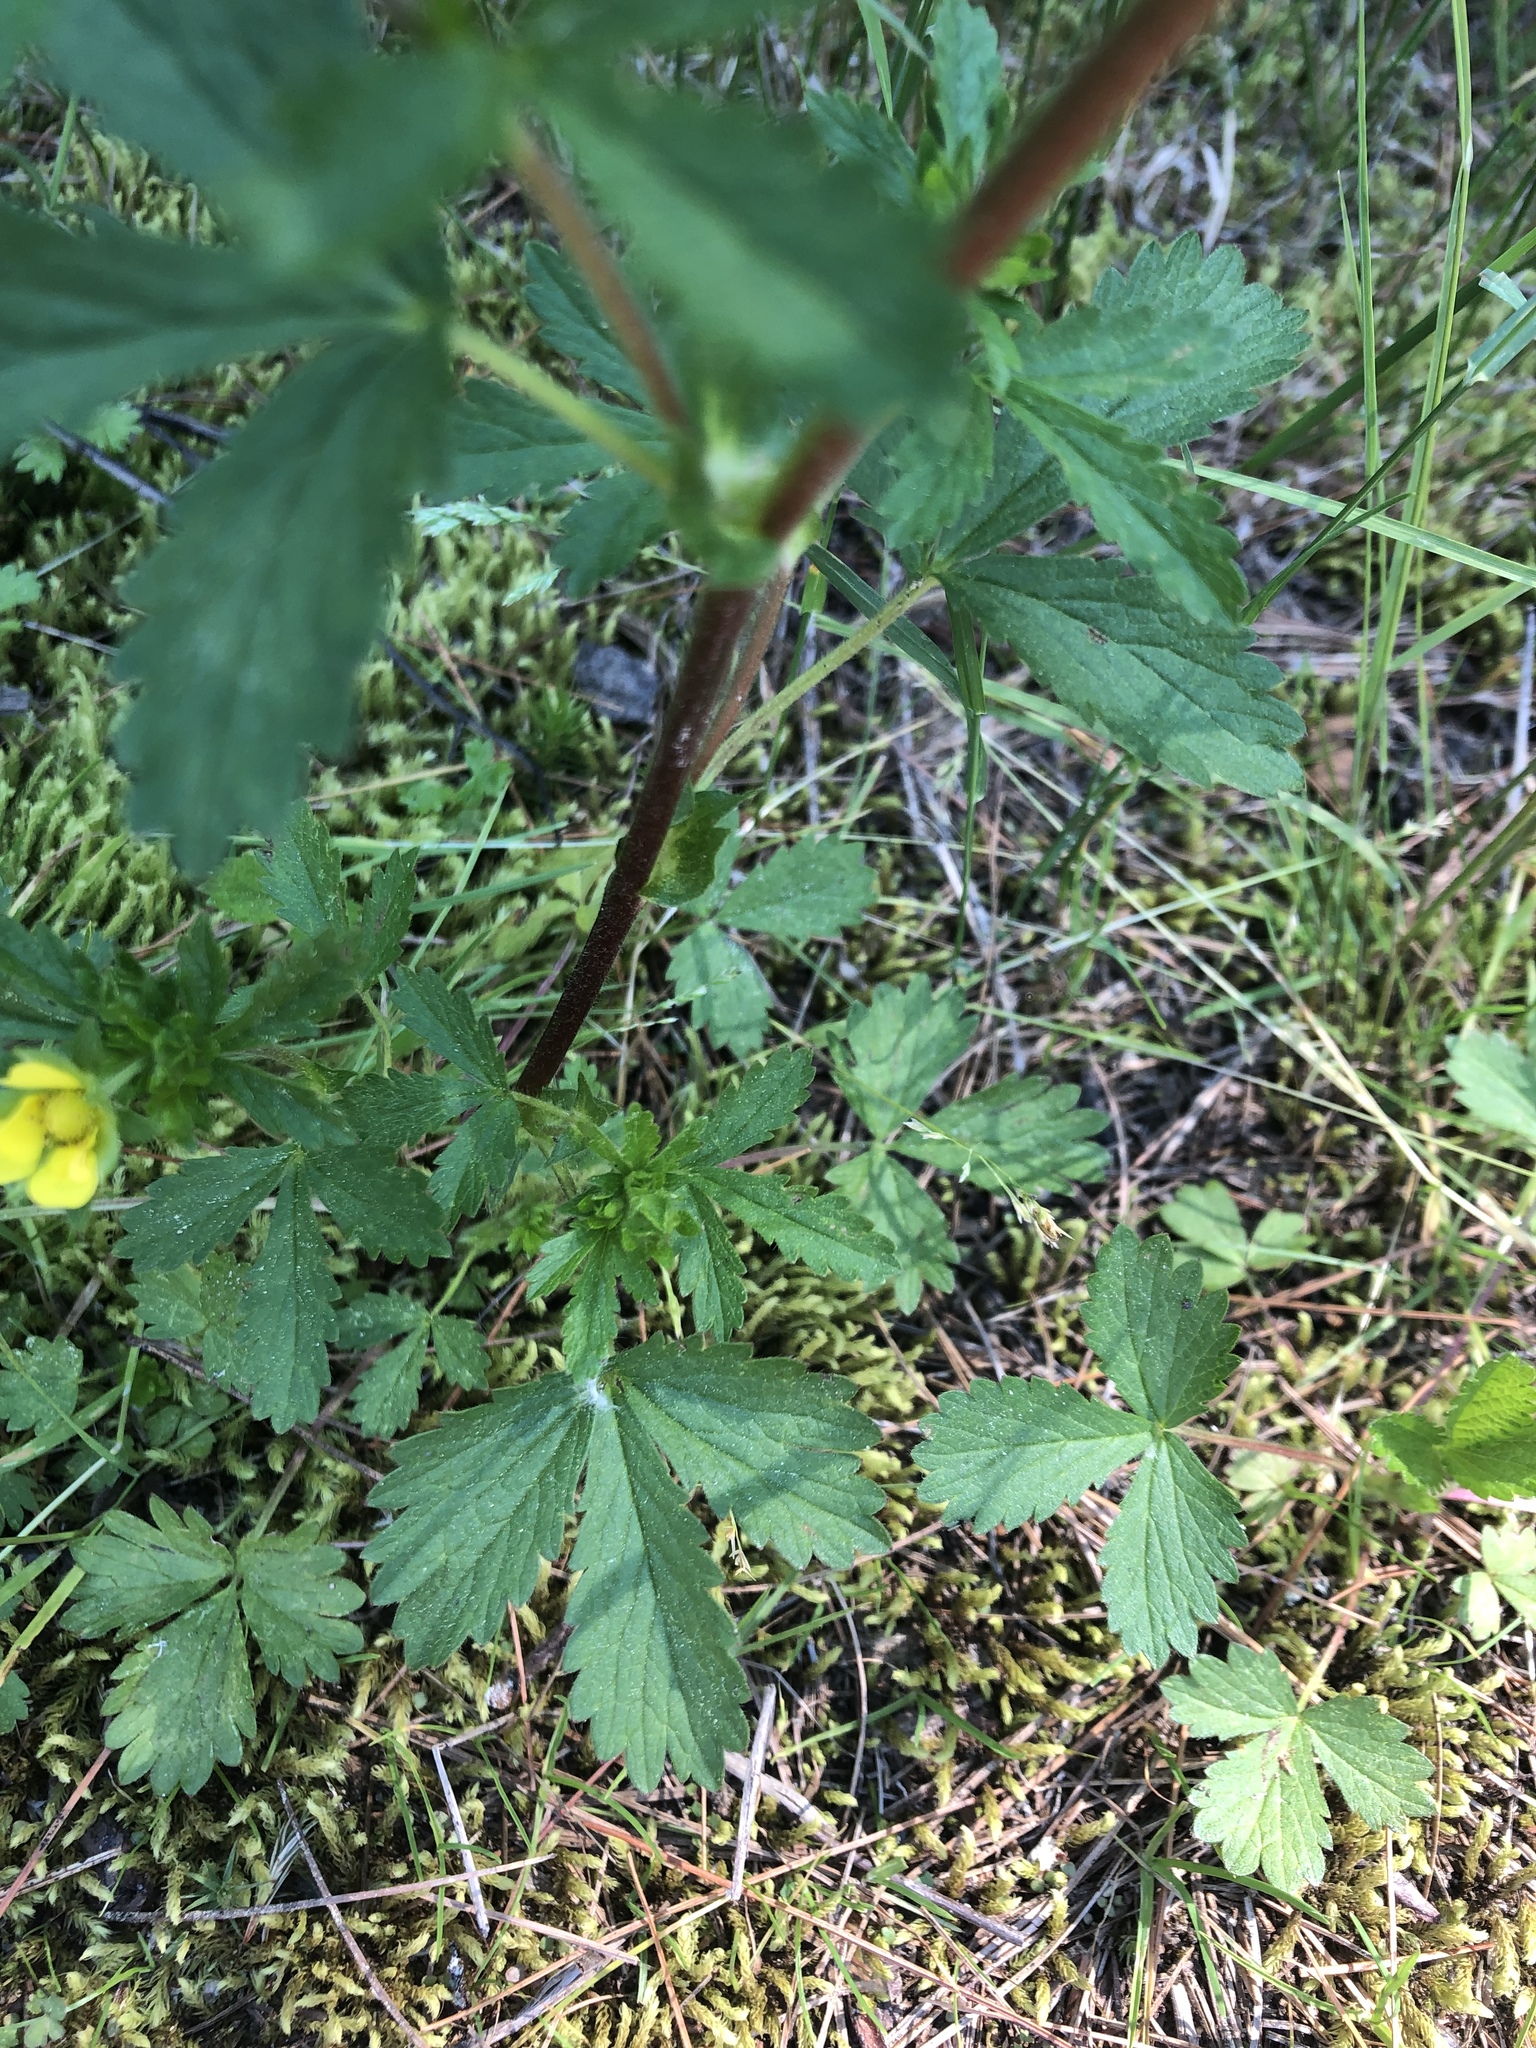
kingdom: Plantae
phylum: Tracheophyta
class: Magnoliopsida
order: Rosales
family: Rosaceae
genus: Potentilla
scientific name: Potentilla norvegica
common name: Ternate-leaved cinquefoil
